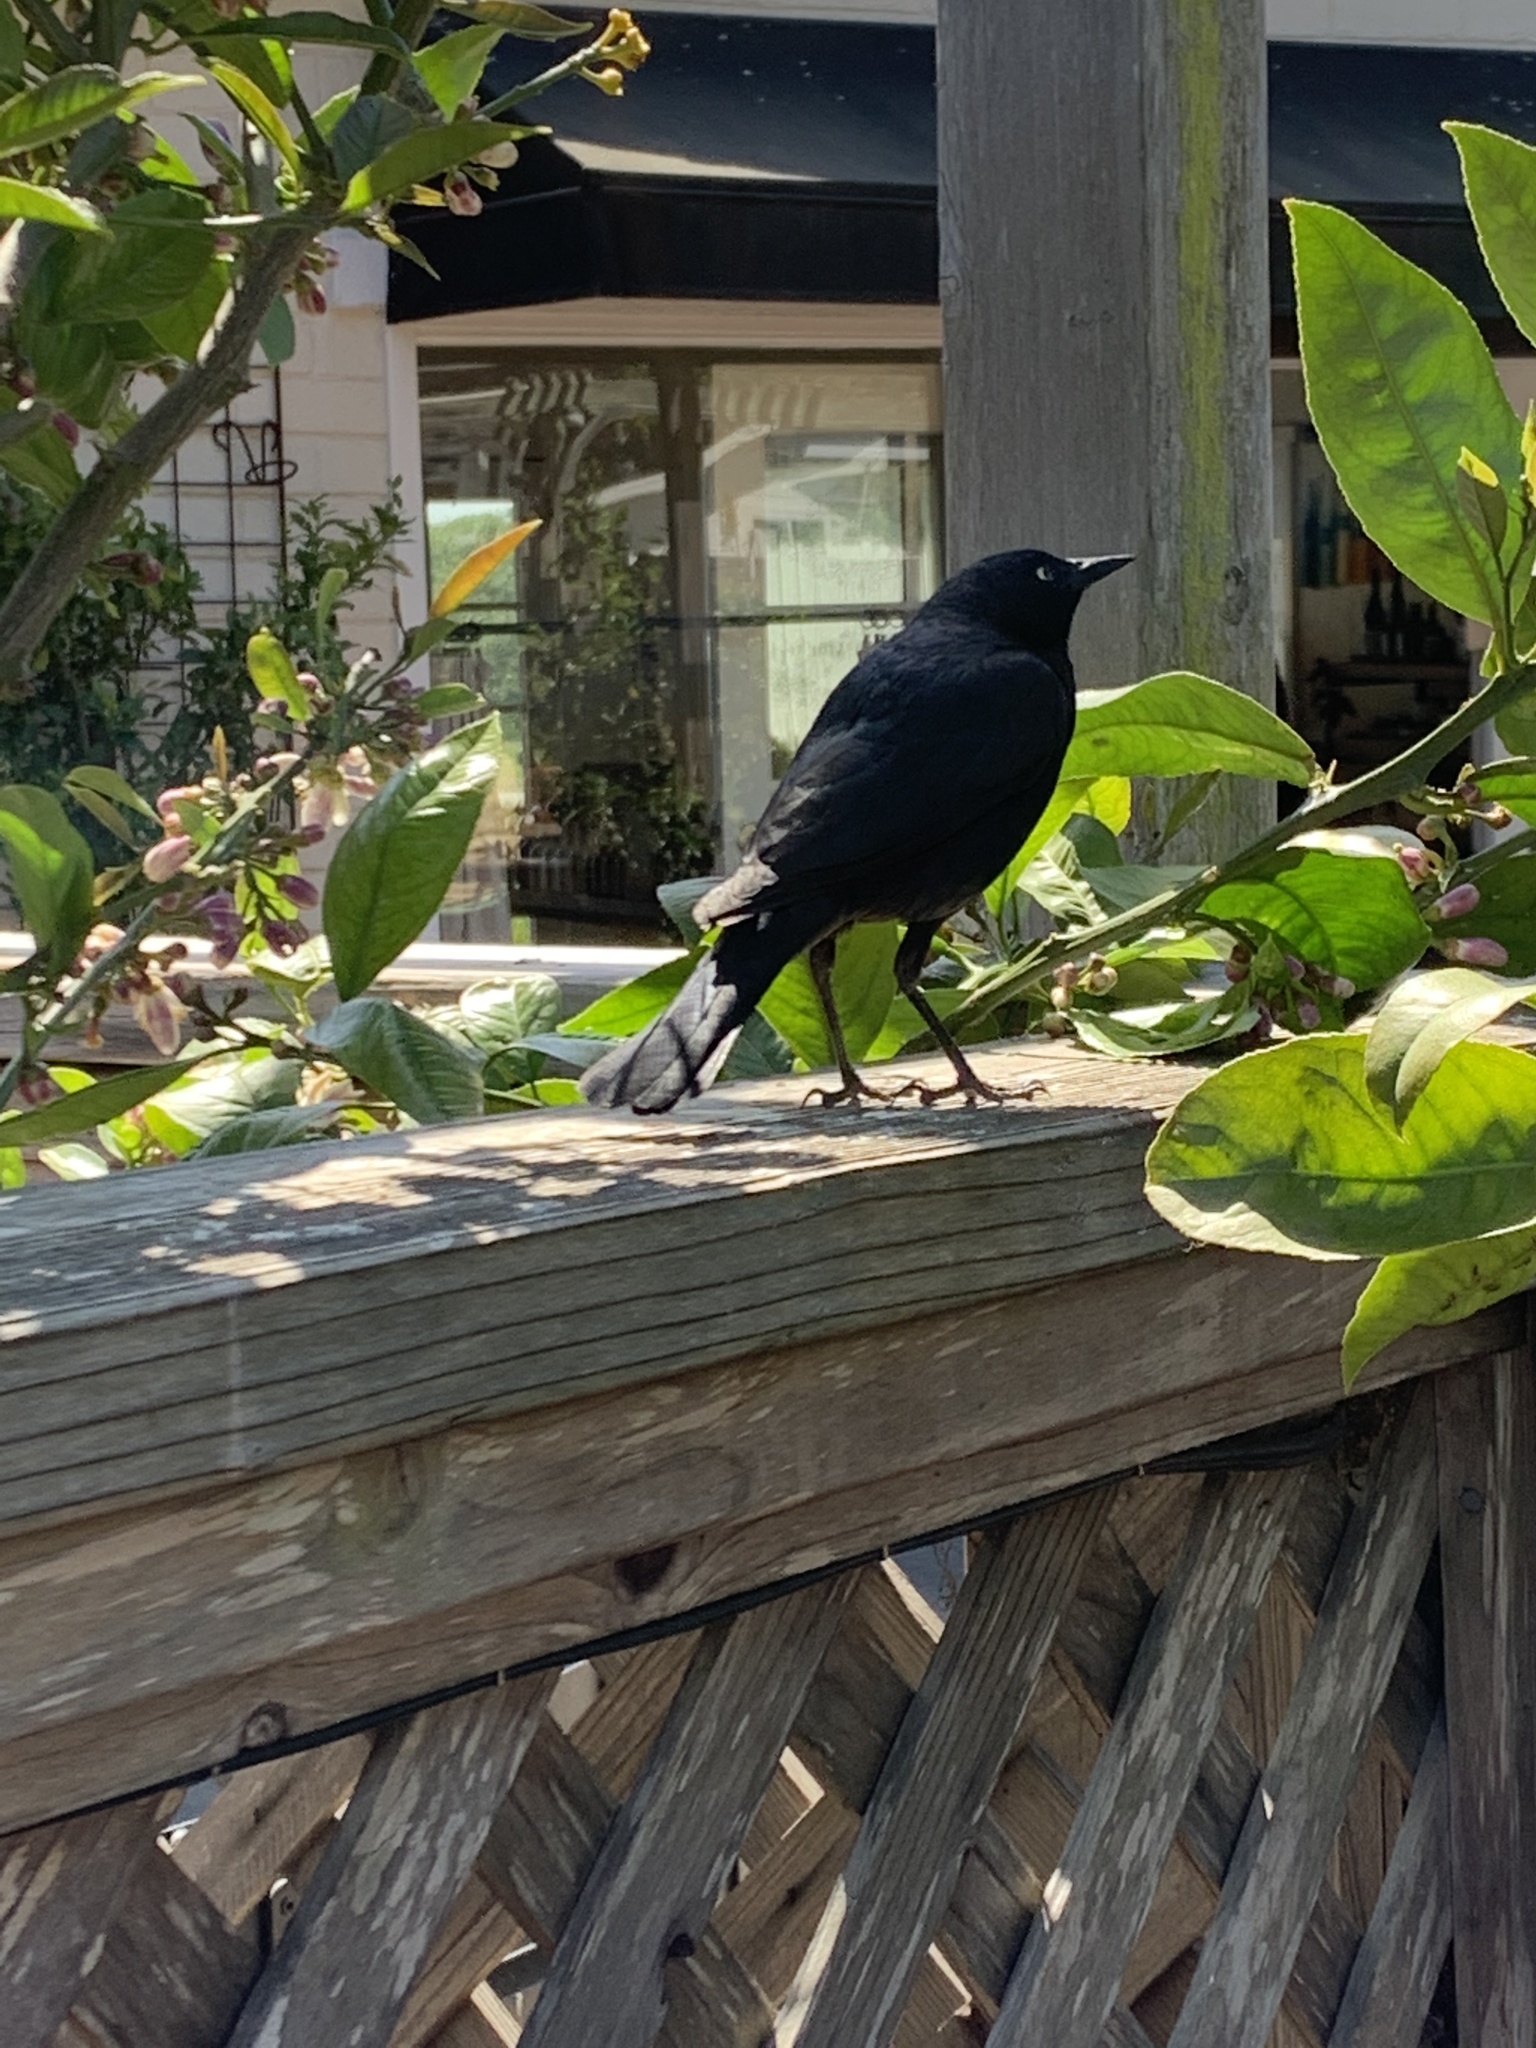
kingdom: Animalia
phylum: Chordata
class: Aves
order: Passeriformes
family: Icteridae
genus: Euphagus
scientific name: Euphagus cyanocephalus
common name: Brewer's blackbird
